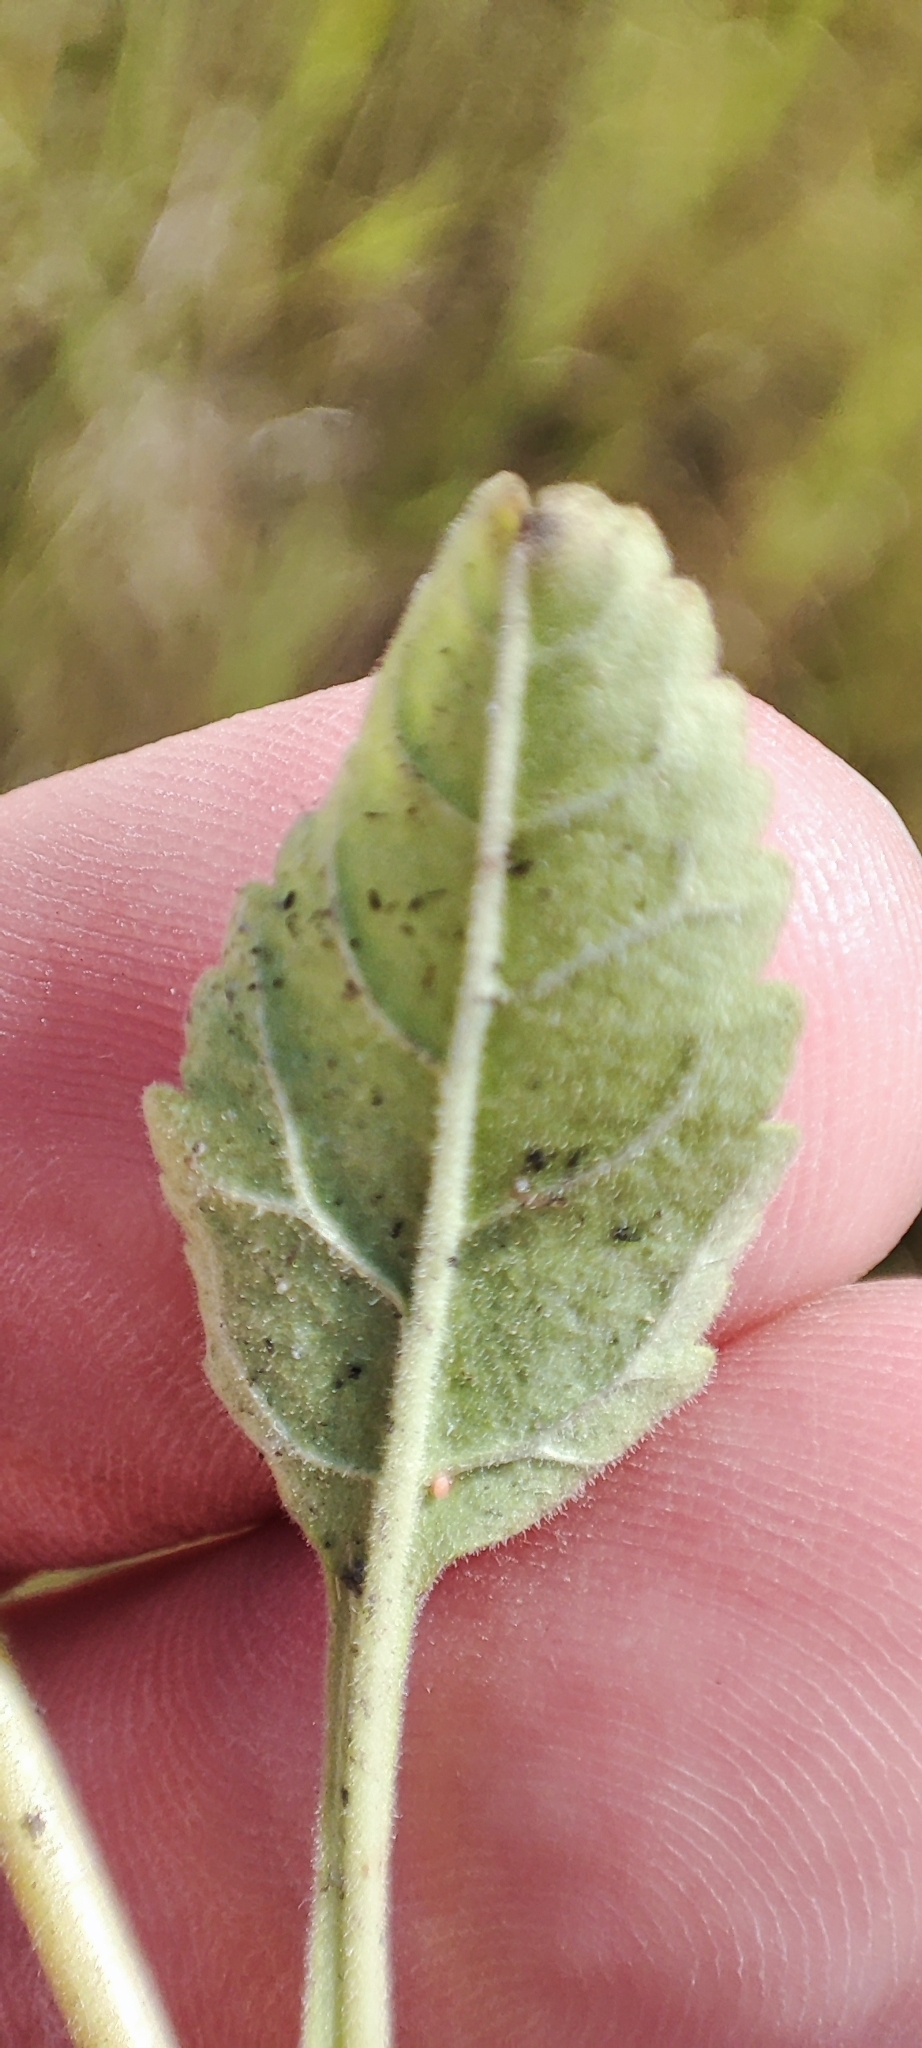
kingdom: Plantae
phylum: Tracheophyta
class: Magnoliopsida
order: Lamiales
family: Plantaginaceae
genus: Veronica
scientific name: Veronica spicata
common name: Spiked speedwell
